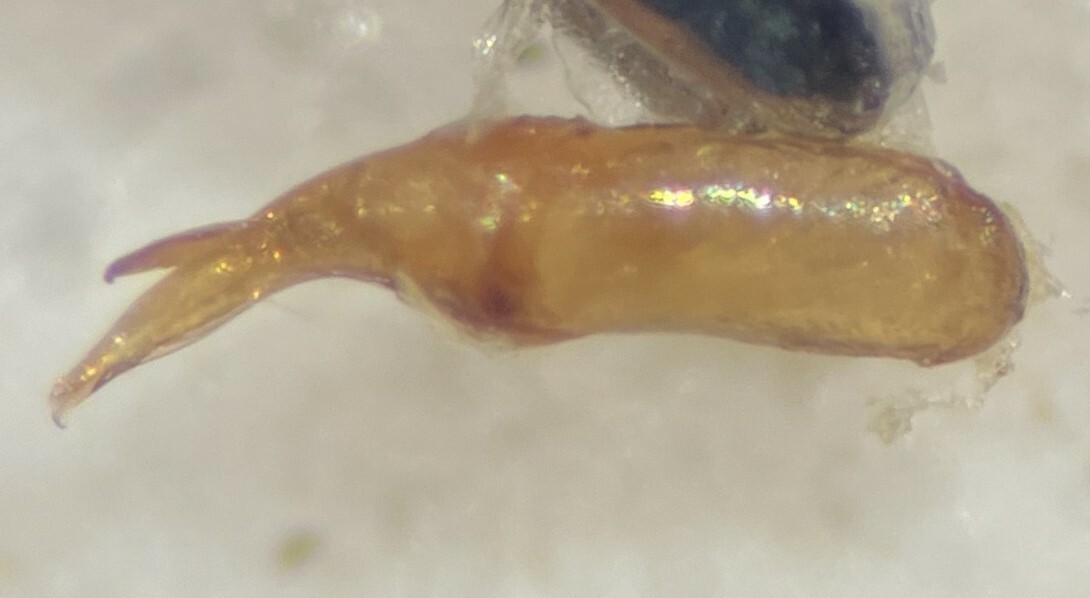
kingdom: Animalia
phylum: Arthropoda
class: Insecta
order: Coleoptera
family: Hydrophilidae
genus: Berosus
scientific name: Berosus blechrus
